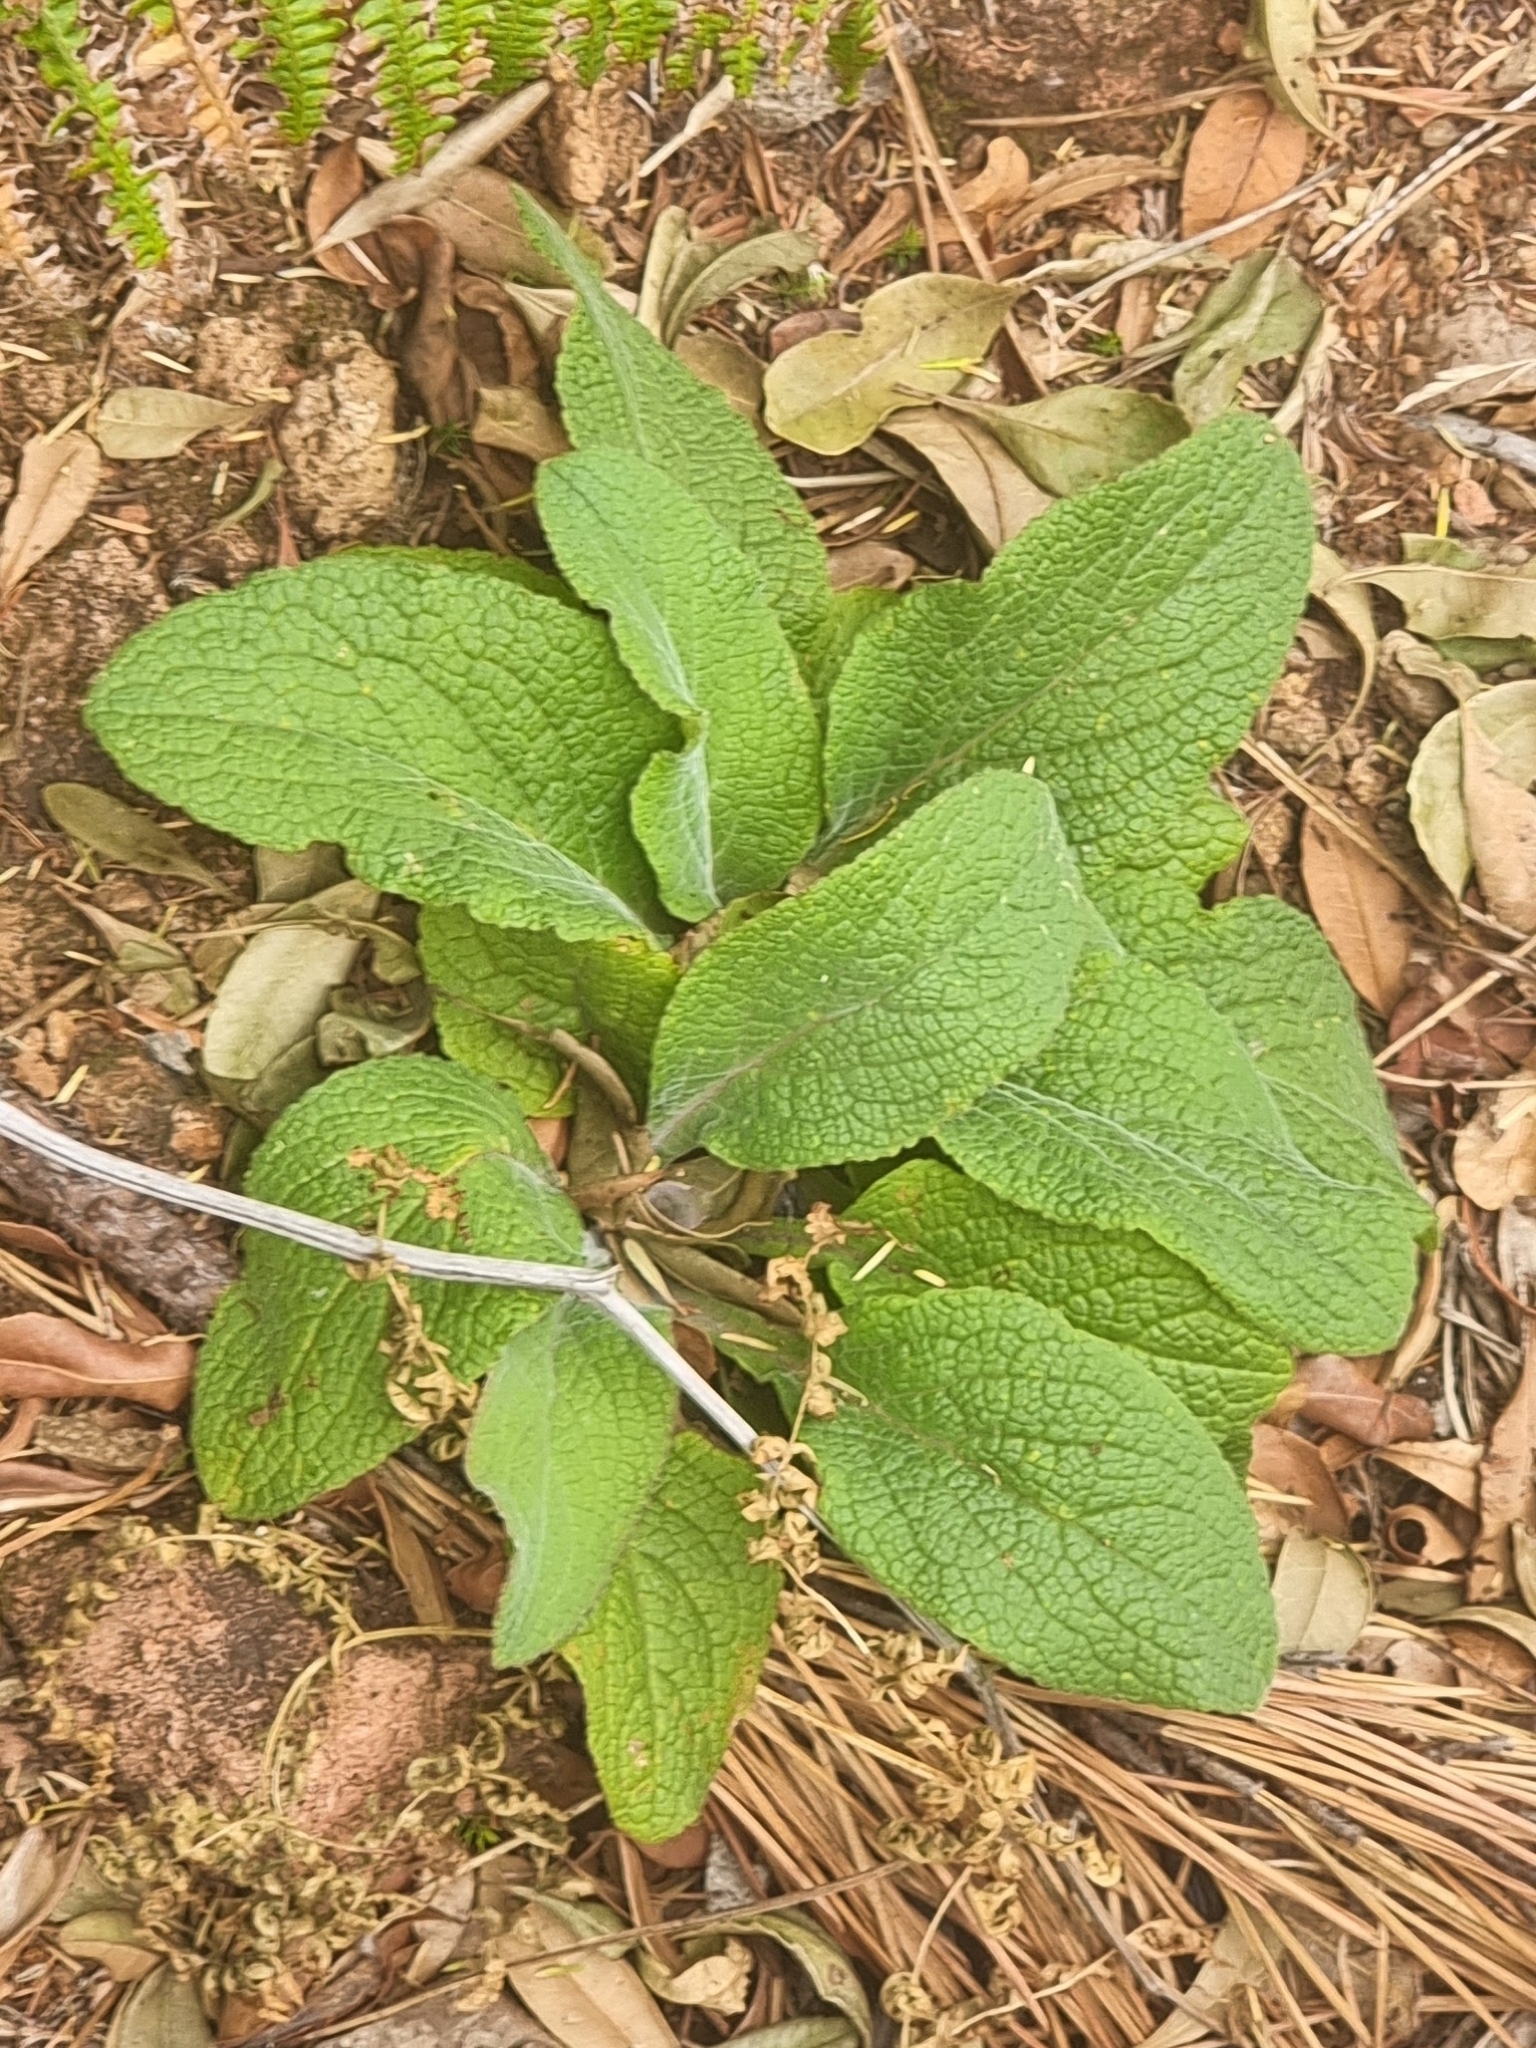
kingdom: Plantae
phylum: Tracheophyta
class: Magnoliopsida
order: Lamiales
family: Plantaginaceae
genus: Digitalis
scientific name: Digitalis purpurea
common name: Foxglove
